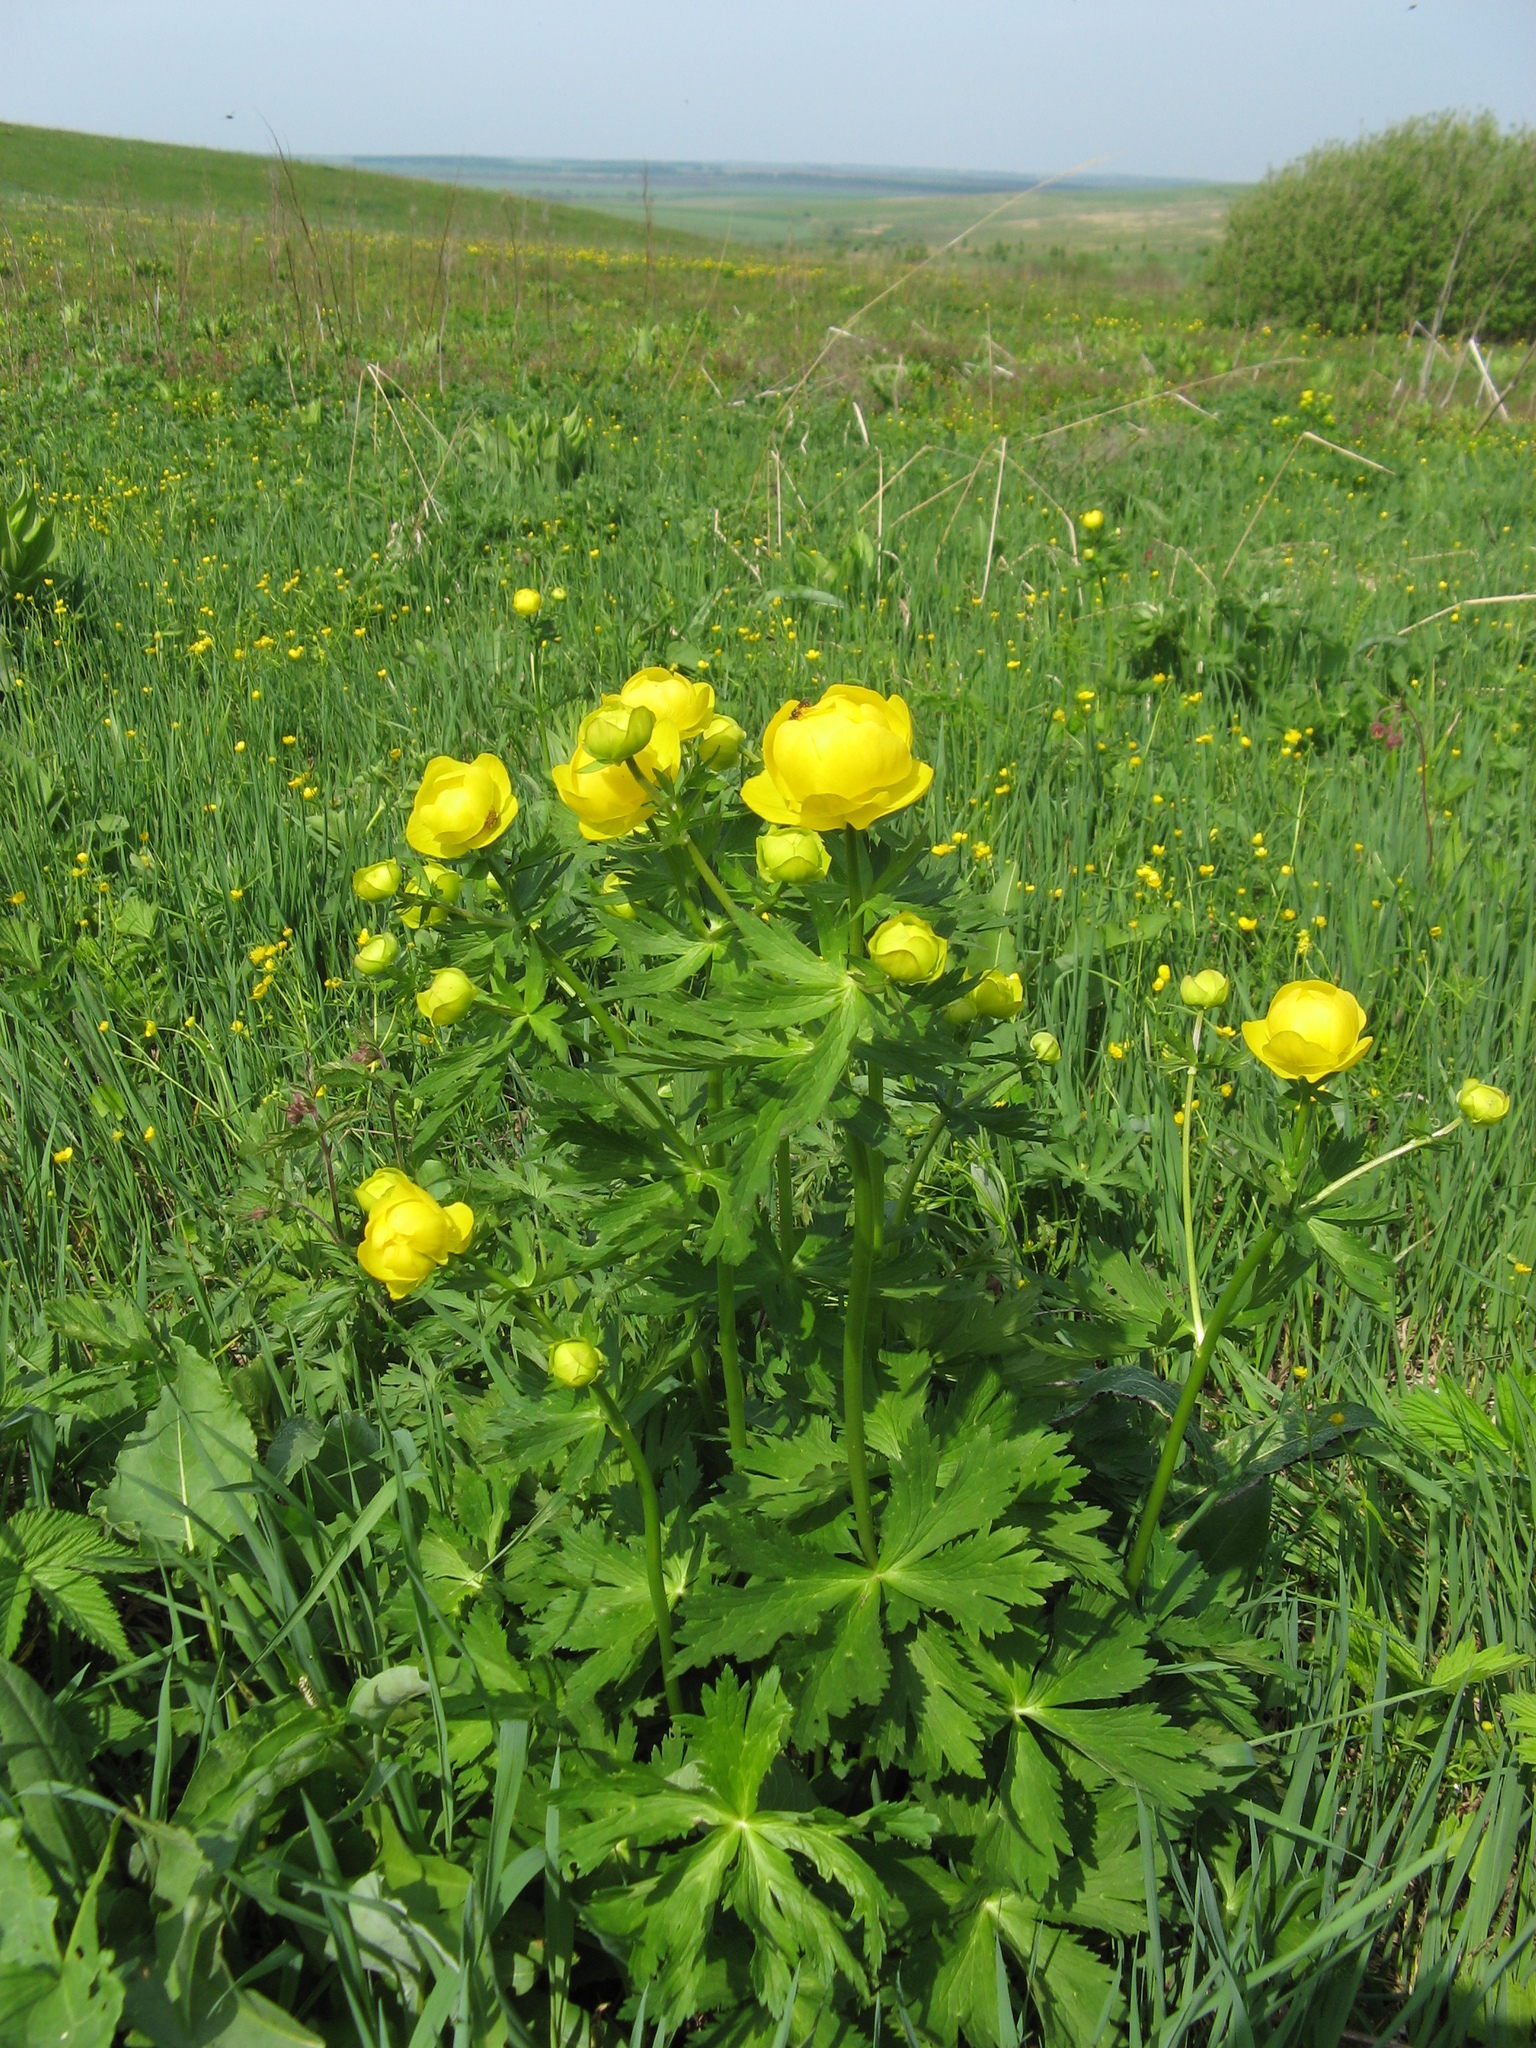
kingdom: Plantae
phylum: Tracheophyta
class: Magnoliopsida
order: Ranunculales
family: Ranunculaceae
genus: Trollius
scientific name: Trollius europaeus
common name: European globeflower
